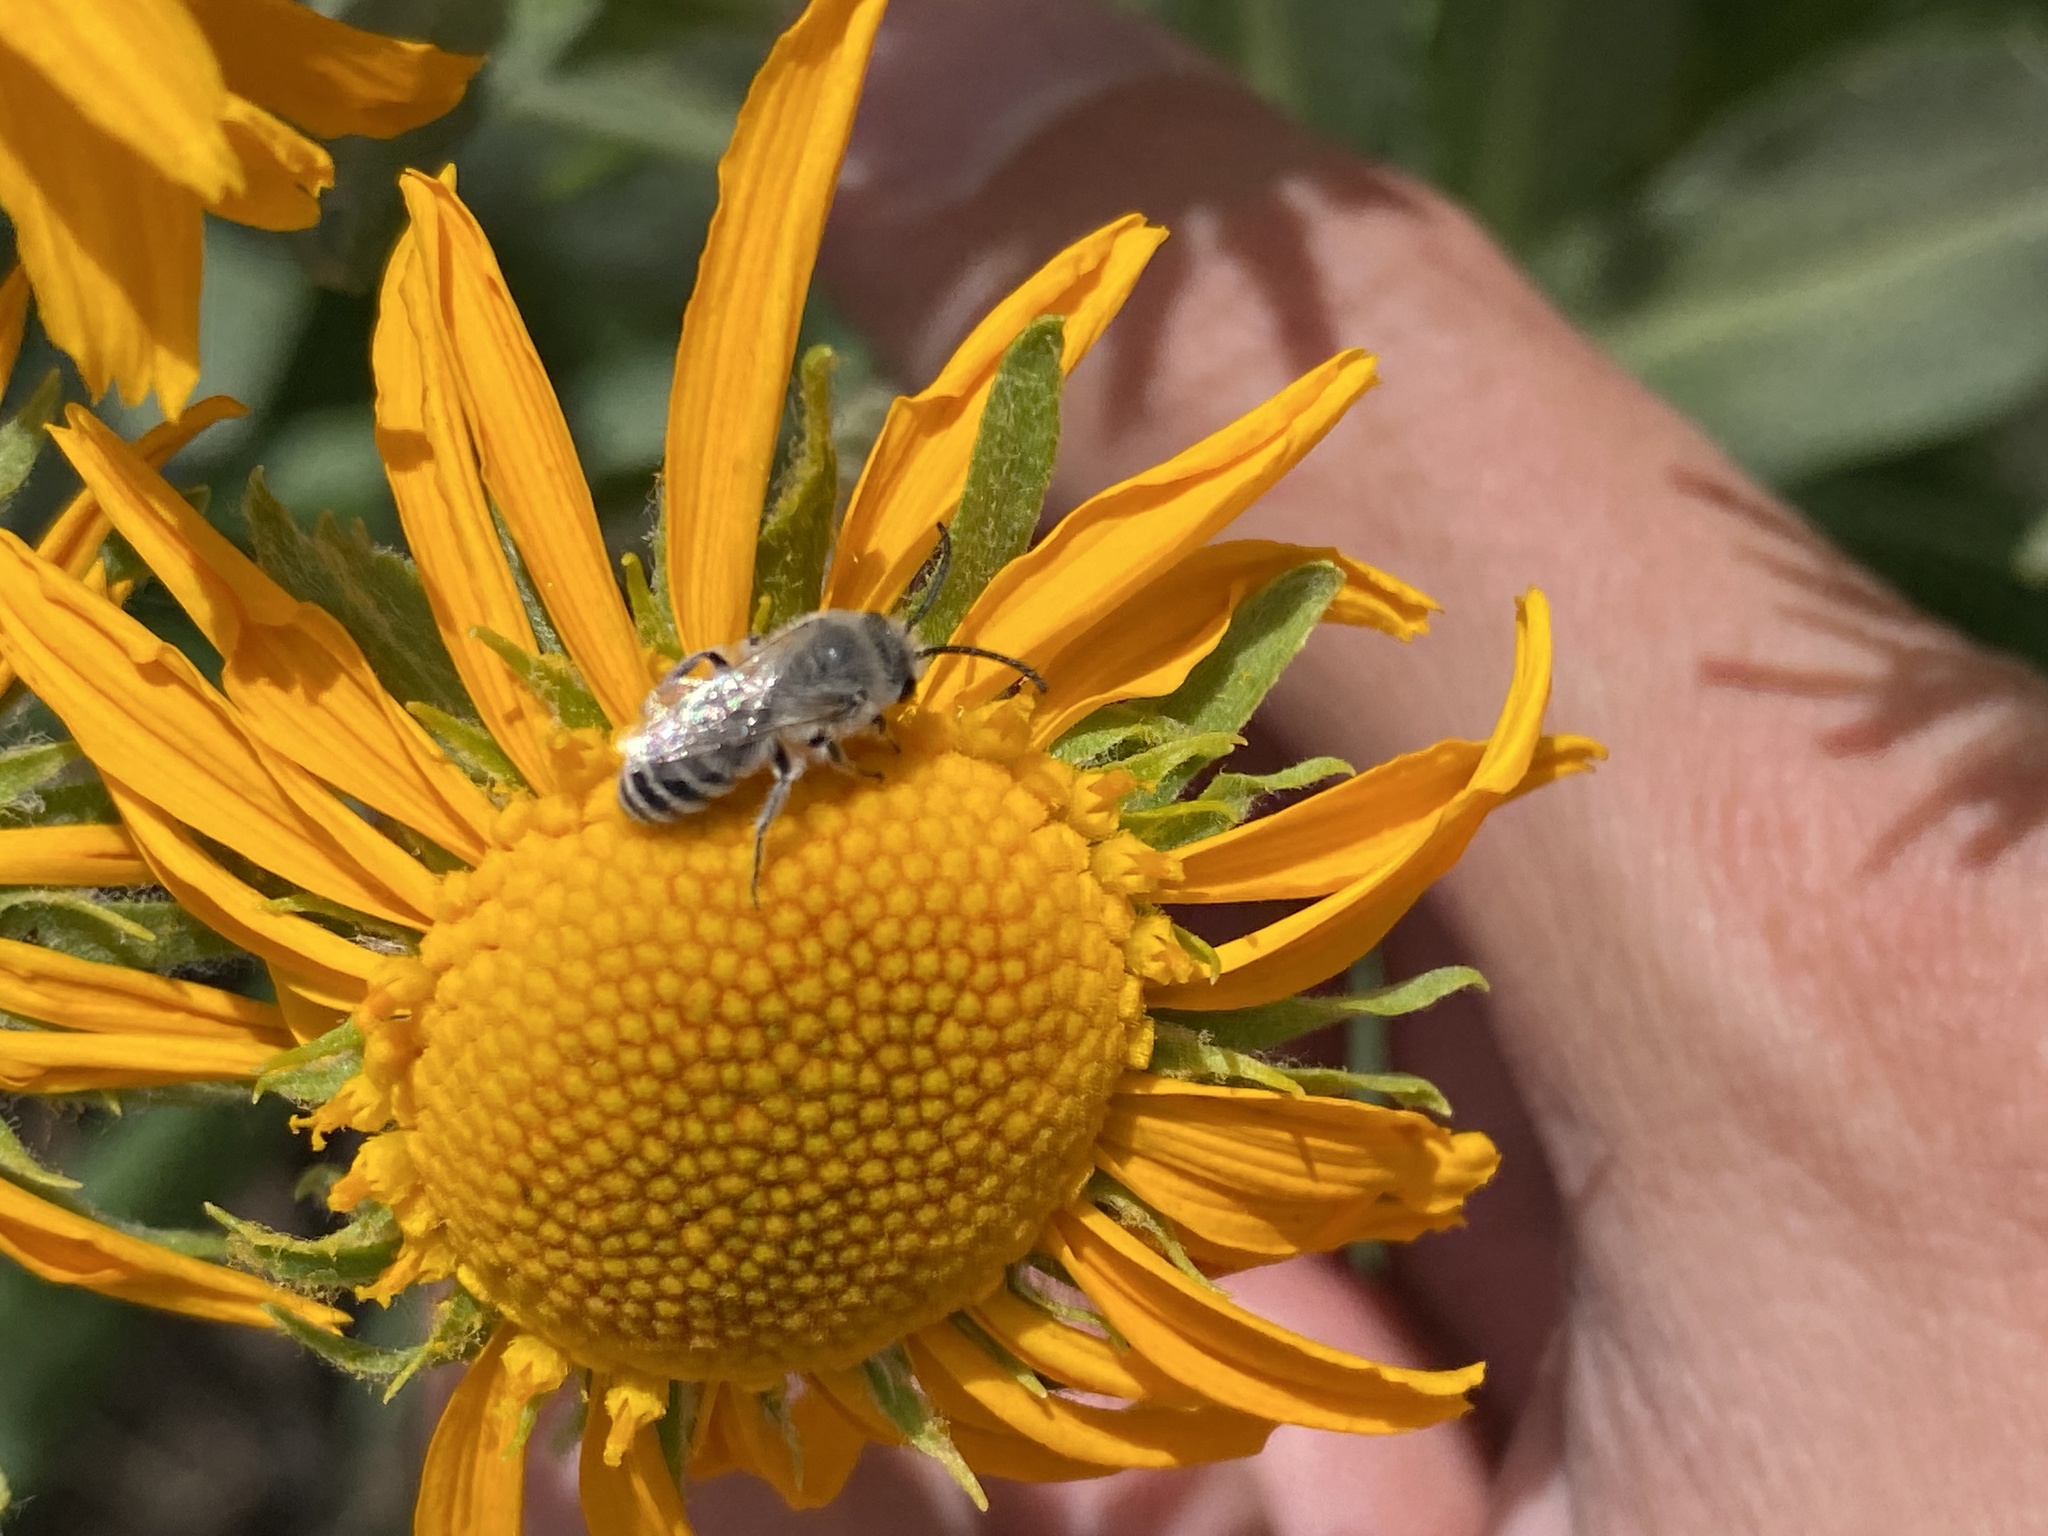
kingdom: Animalia
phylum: Arthropoda
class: Insecta
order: Hymenoptera
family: Colletidae
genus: Colletes
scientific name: Colletes
